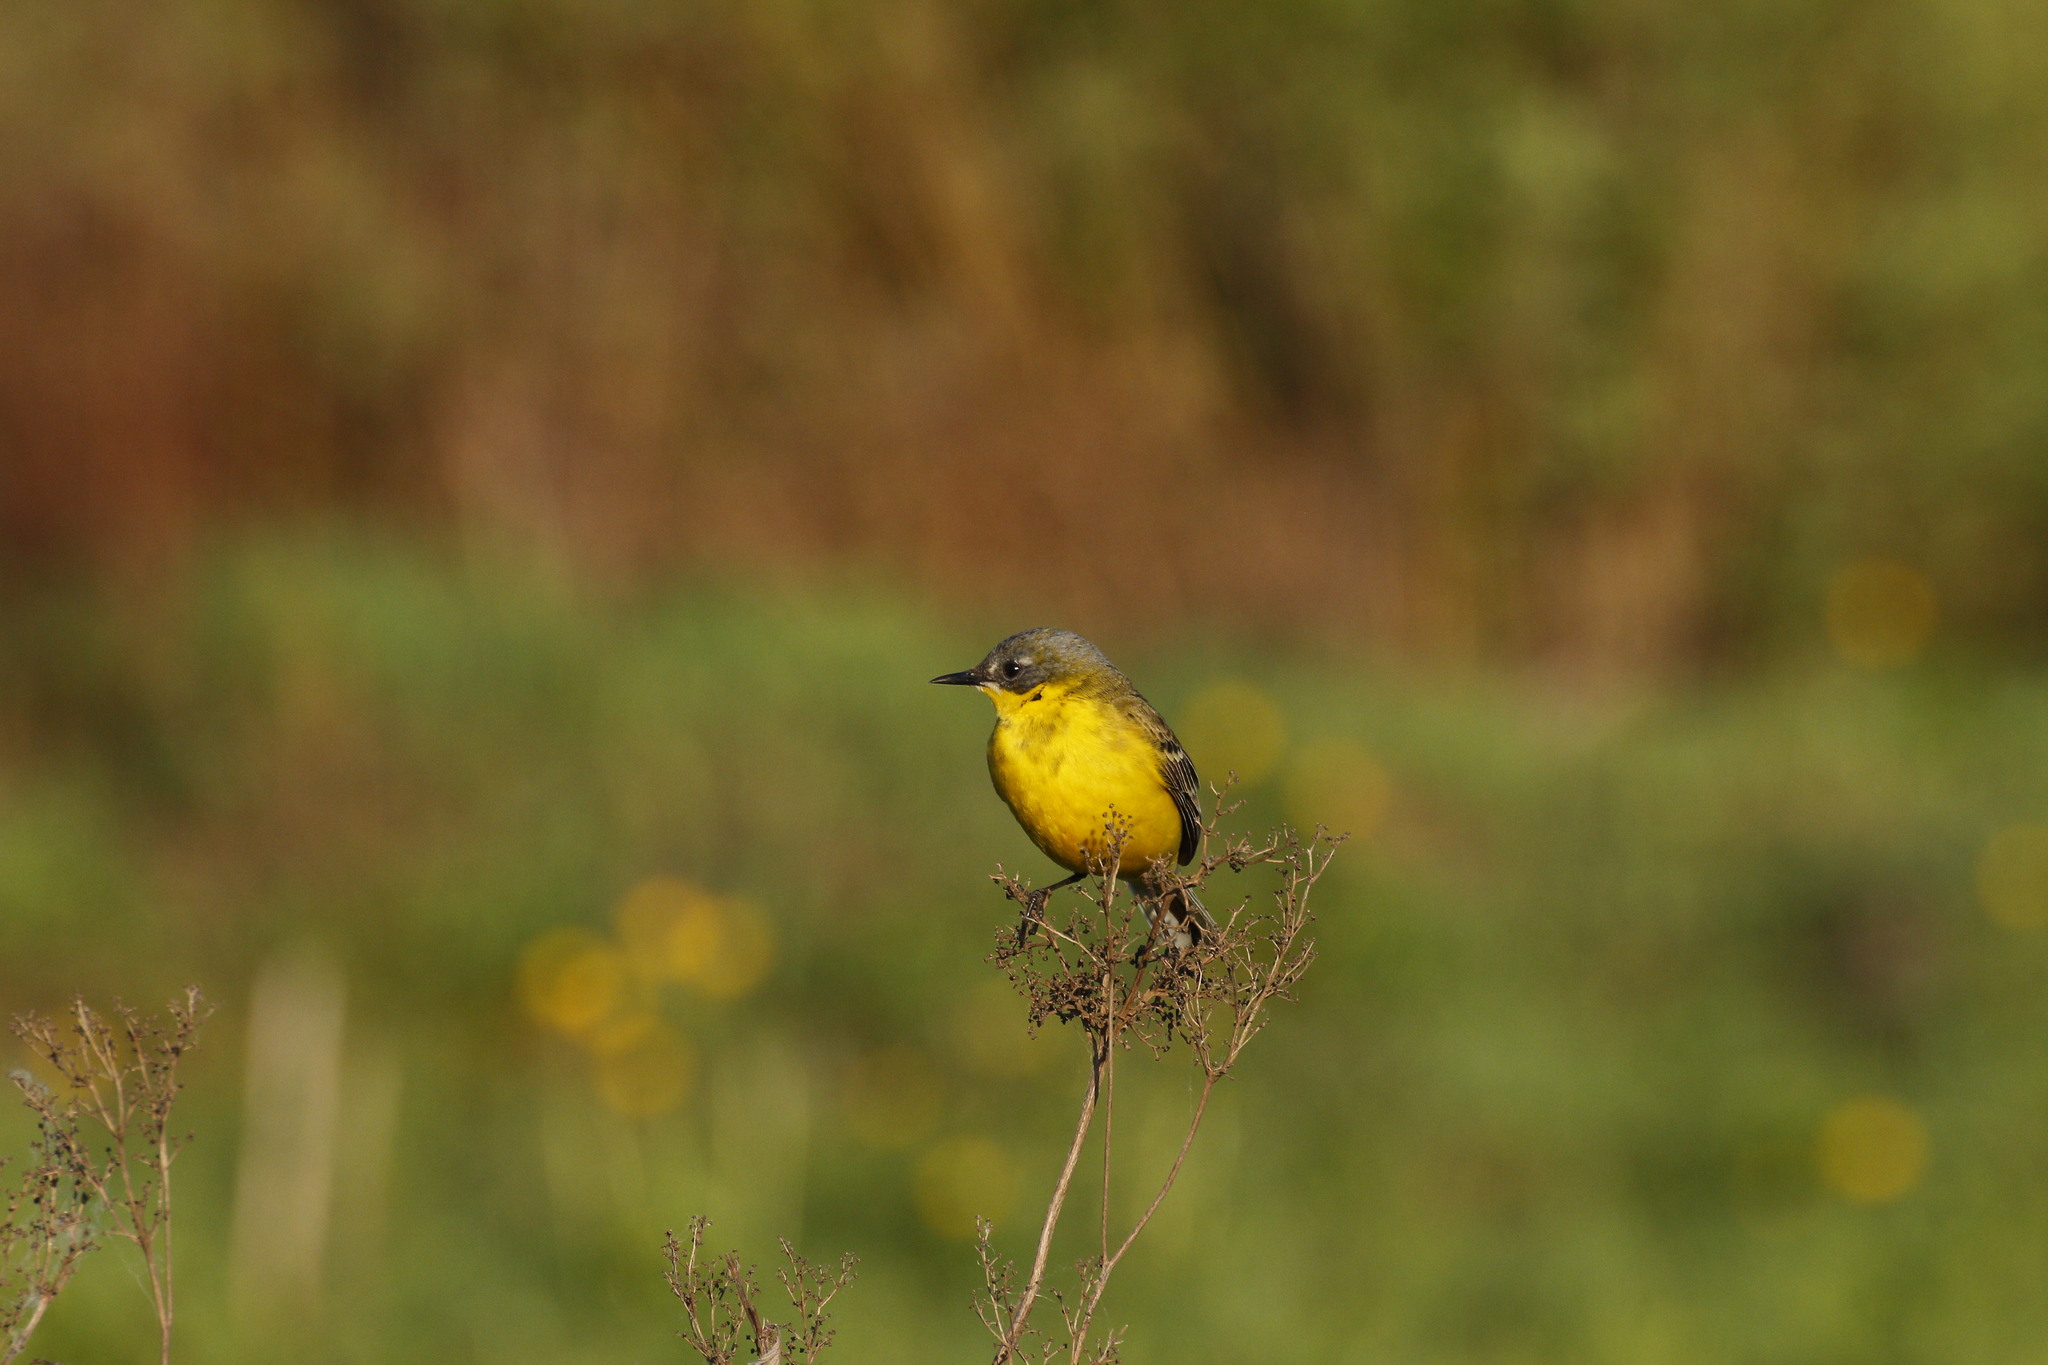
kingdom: Animalia
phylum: Chordata
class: Aves
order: Passeriformes
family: Motacillidae
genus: Motacilla
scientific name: Motacilla flava
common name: Western yellow wagtail
